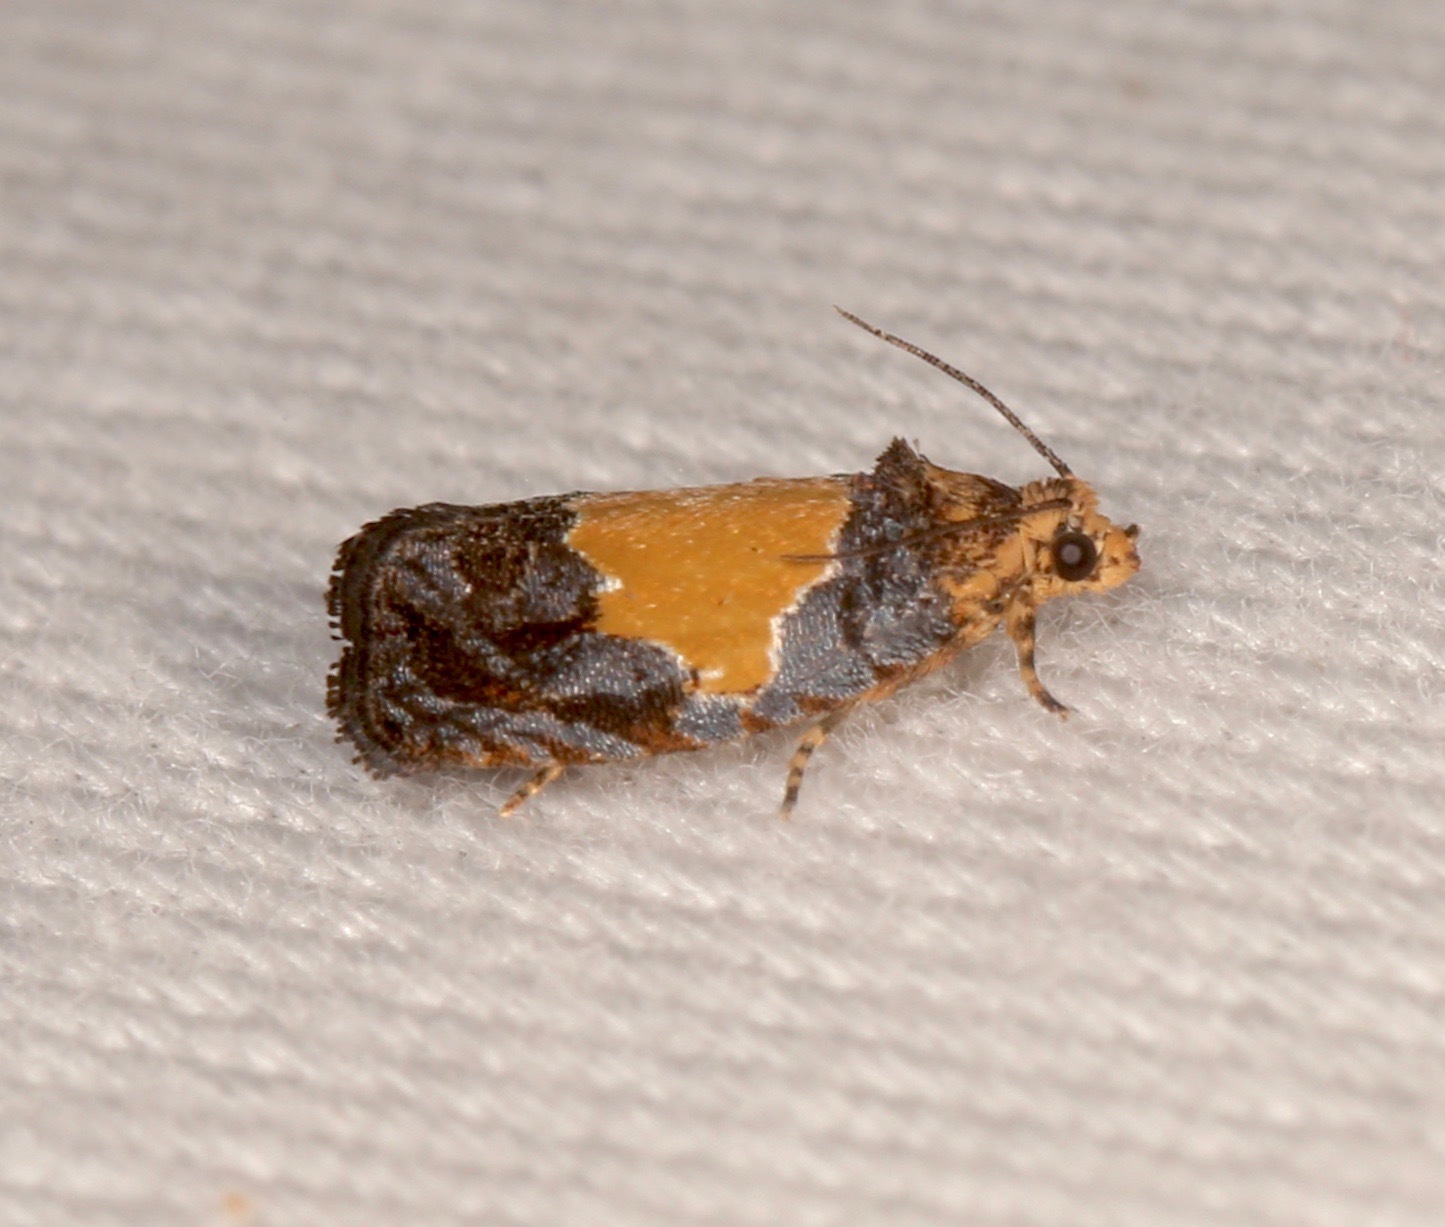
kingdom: Animalia
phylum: Arthropoda
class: Insecta
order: Lepidoptera
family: Tortricidae
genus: Olethreutes
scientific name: Olethreutes osmundana
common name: Fern olethreutes moth
